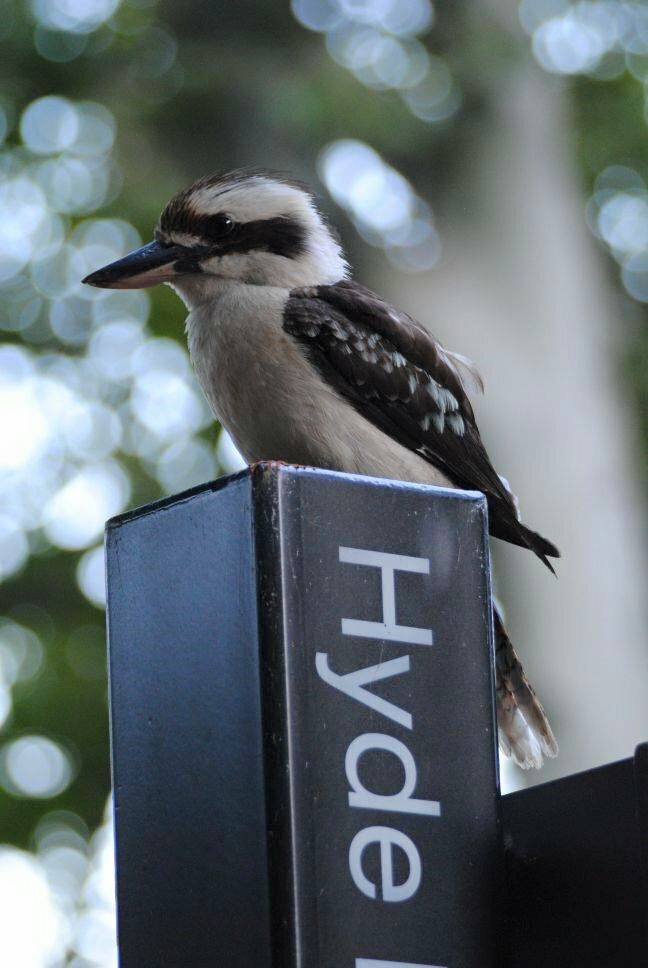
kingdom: Animalia
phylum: Chordata
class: Aves
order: Coraciiformes
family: Alcedinidae
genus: Dacelo
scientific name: Dacelo novaeguineae
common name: Laughing kookaburra
